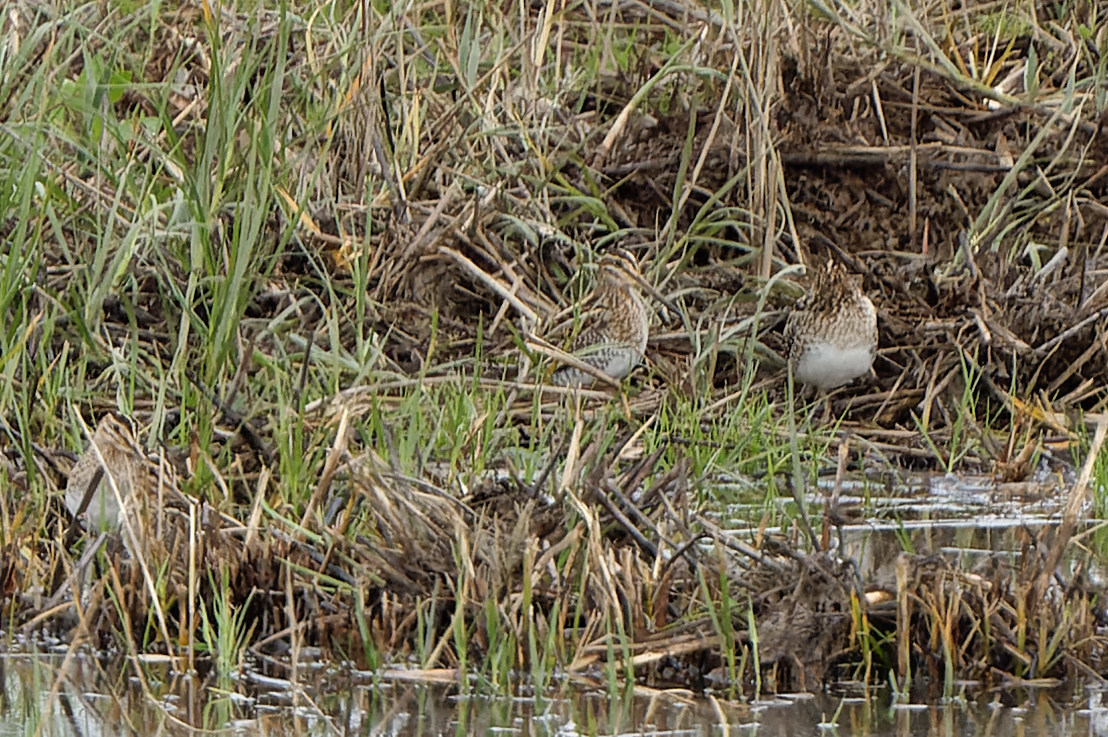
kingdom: Animalia
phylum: Chordata
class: Aves
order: Charadriiformes
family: Scolopacidae
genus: Gallinago
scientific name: Gallinago gallinago
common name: Common snipe
